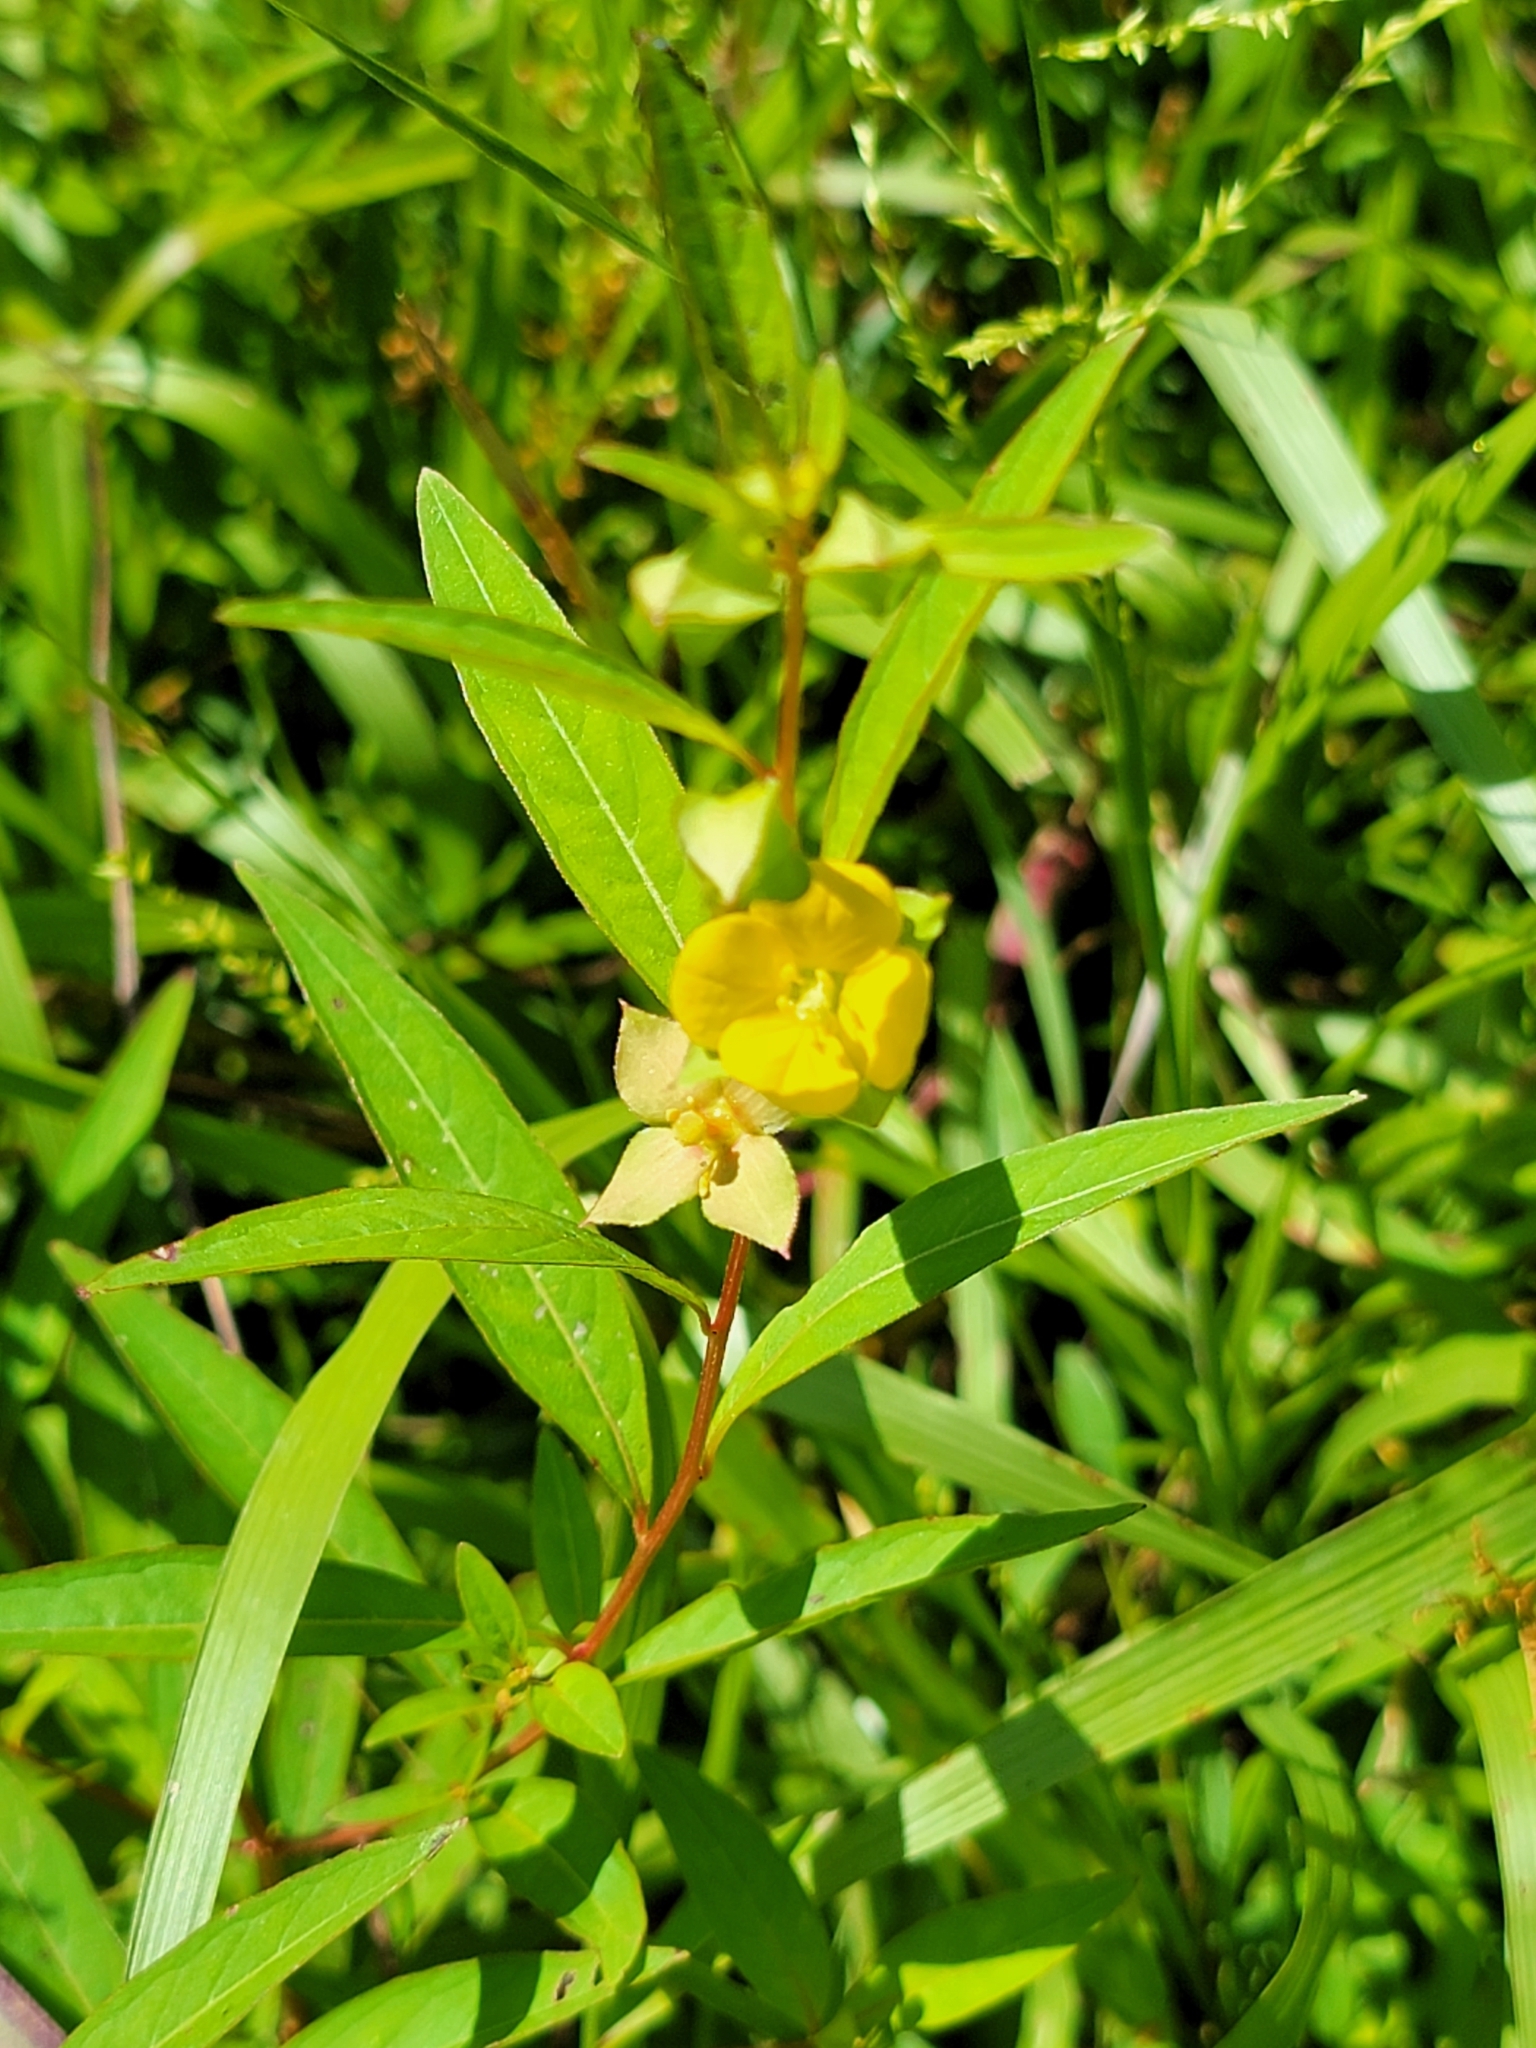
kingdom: Plantae
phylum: Tracheophyta
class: Magnoliopsida
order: Myrtales
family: Onagraceae
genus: Ludwigia
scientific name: Ludwigia alternifolia
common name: Rattlebox
